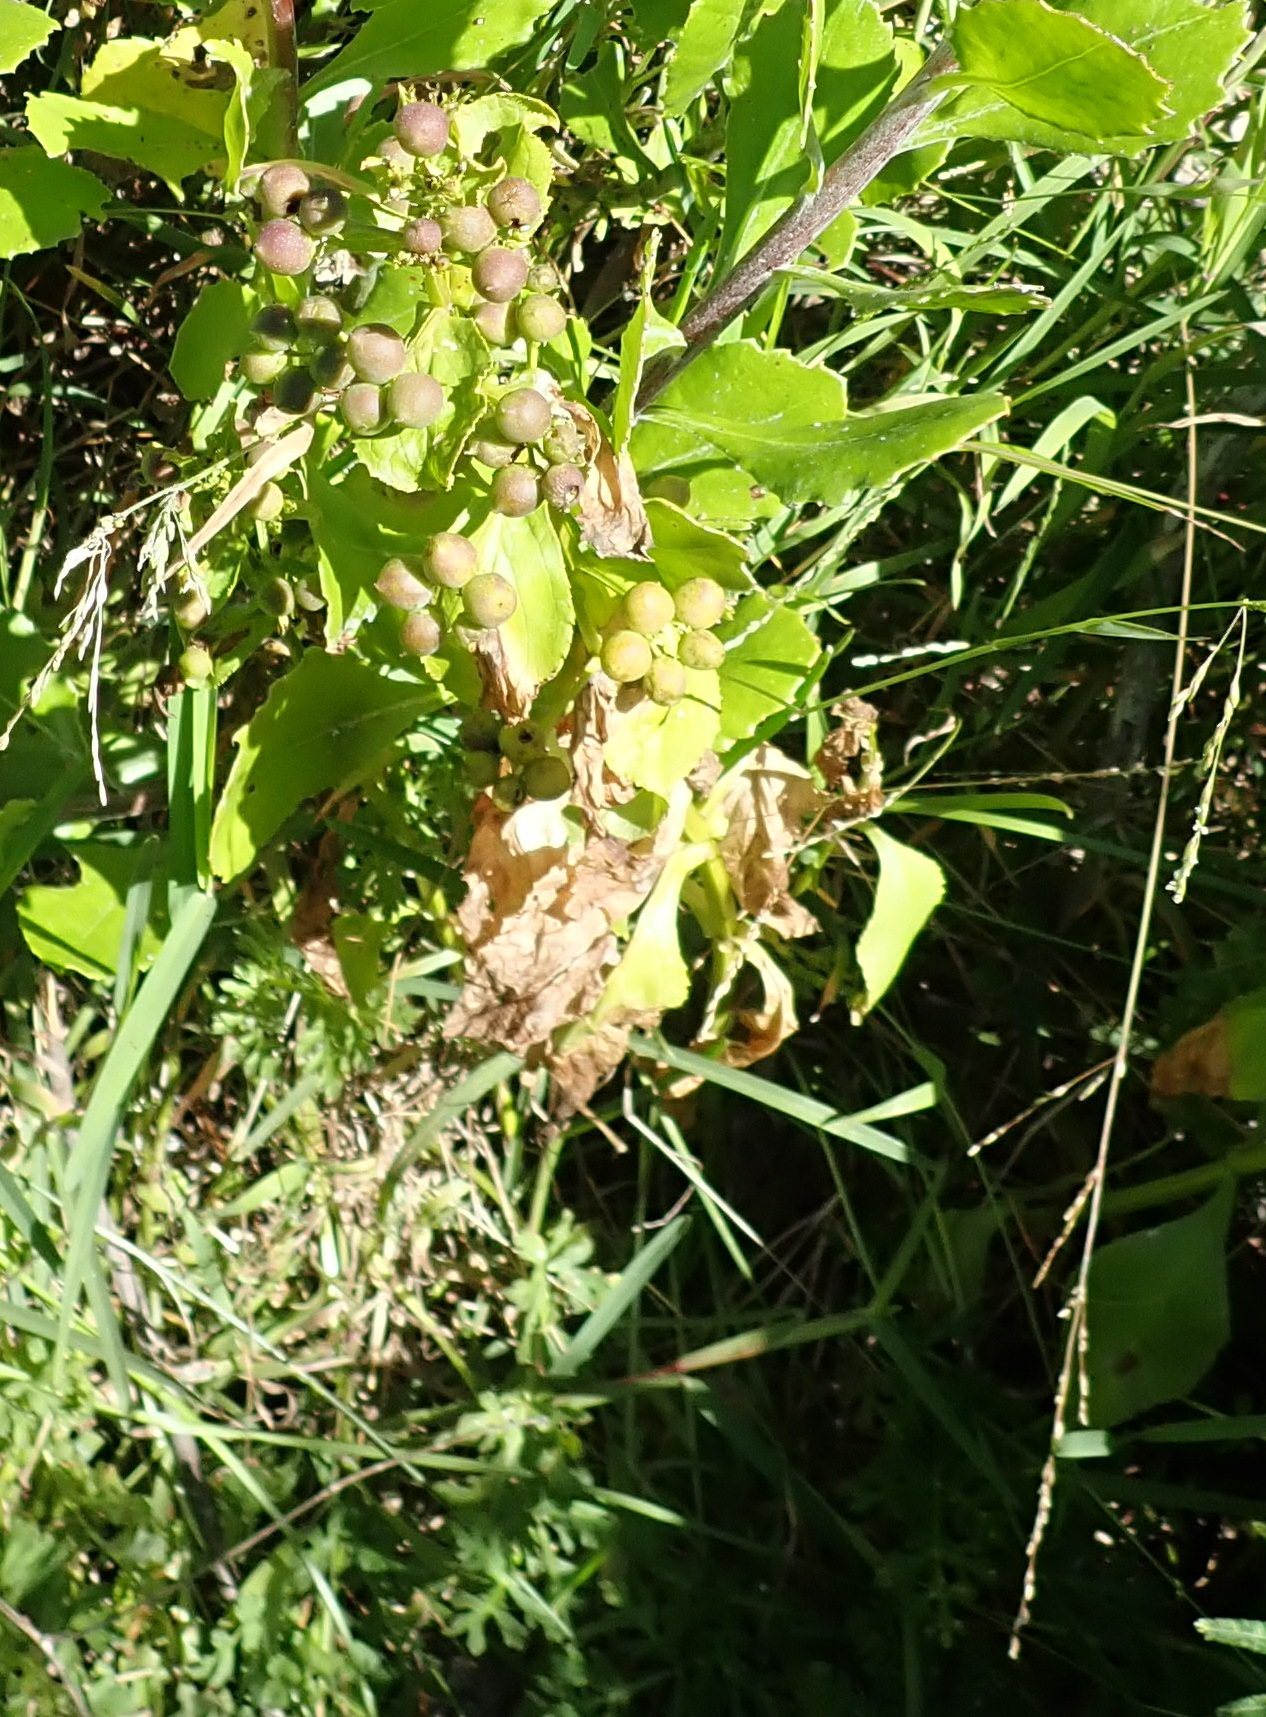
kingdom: Plantae
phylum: Tracheophyta
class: Magnoliopsida
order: Lamiales
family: Scrophulariaceae
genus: Teedia
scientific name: Teedia lucida
